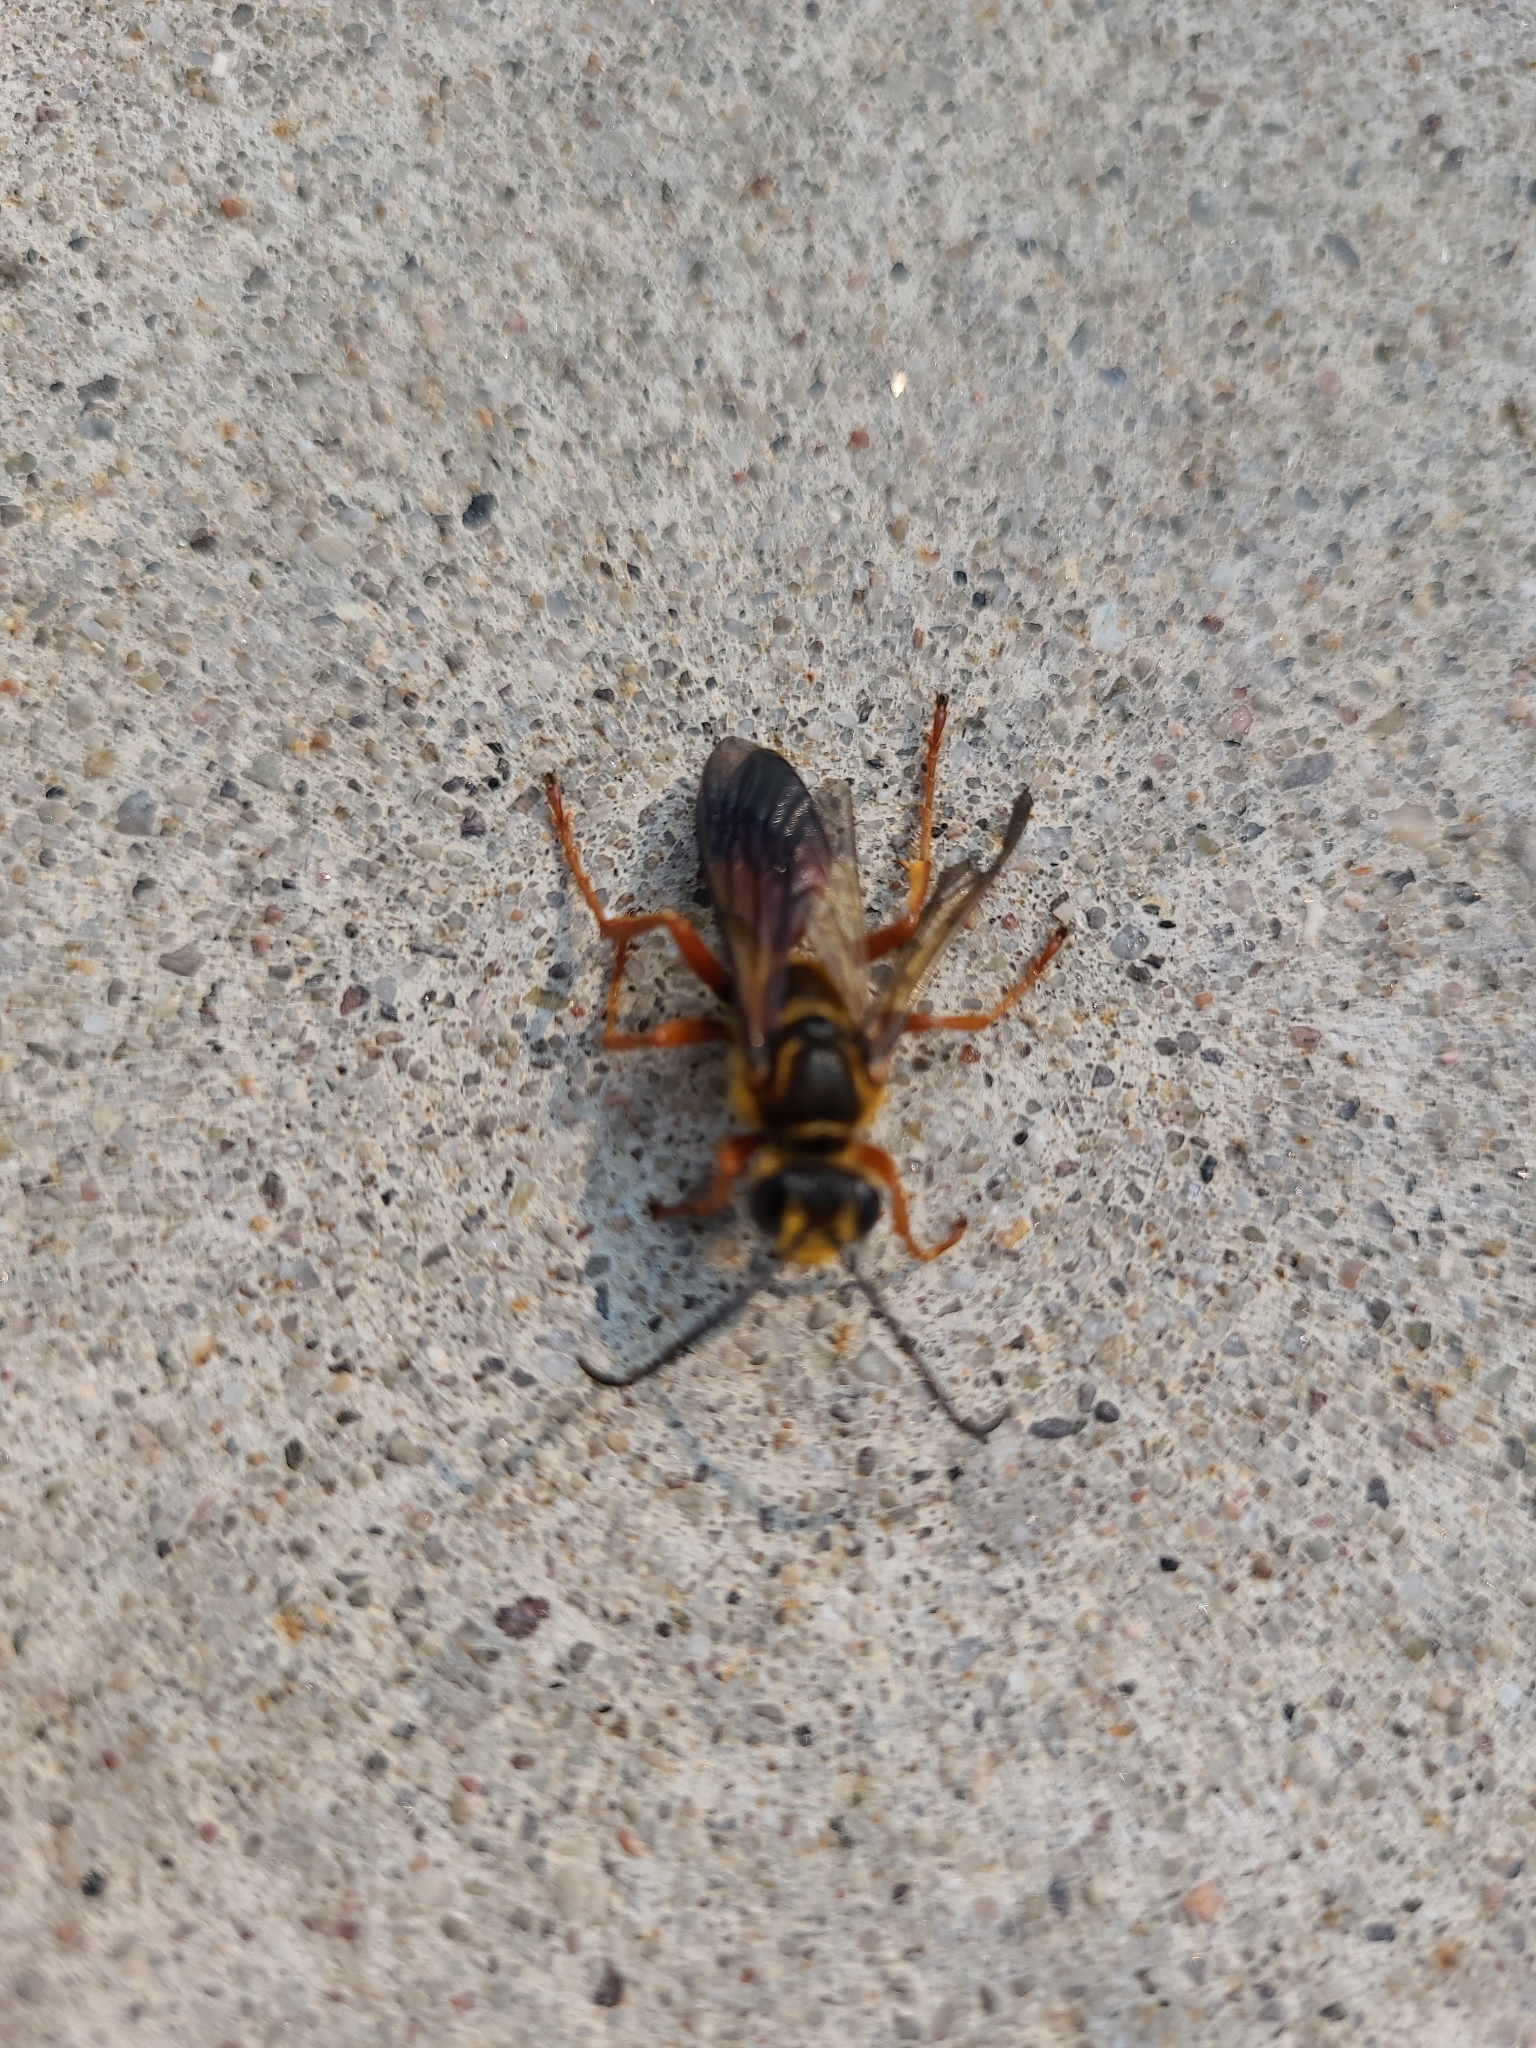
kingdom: Animalia
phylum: Arthropoda
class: Insecta
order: Hymenoptera
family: Sphecidae
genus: Sphex
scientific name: Sphex ichneumoneus
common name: Great golden digger wasp
